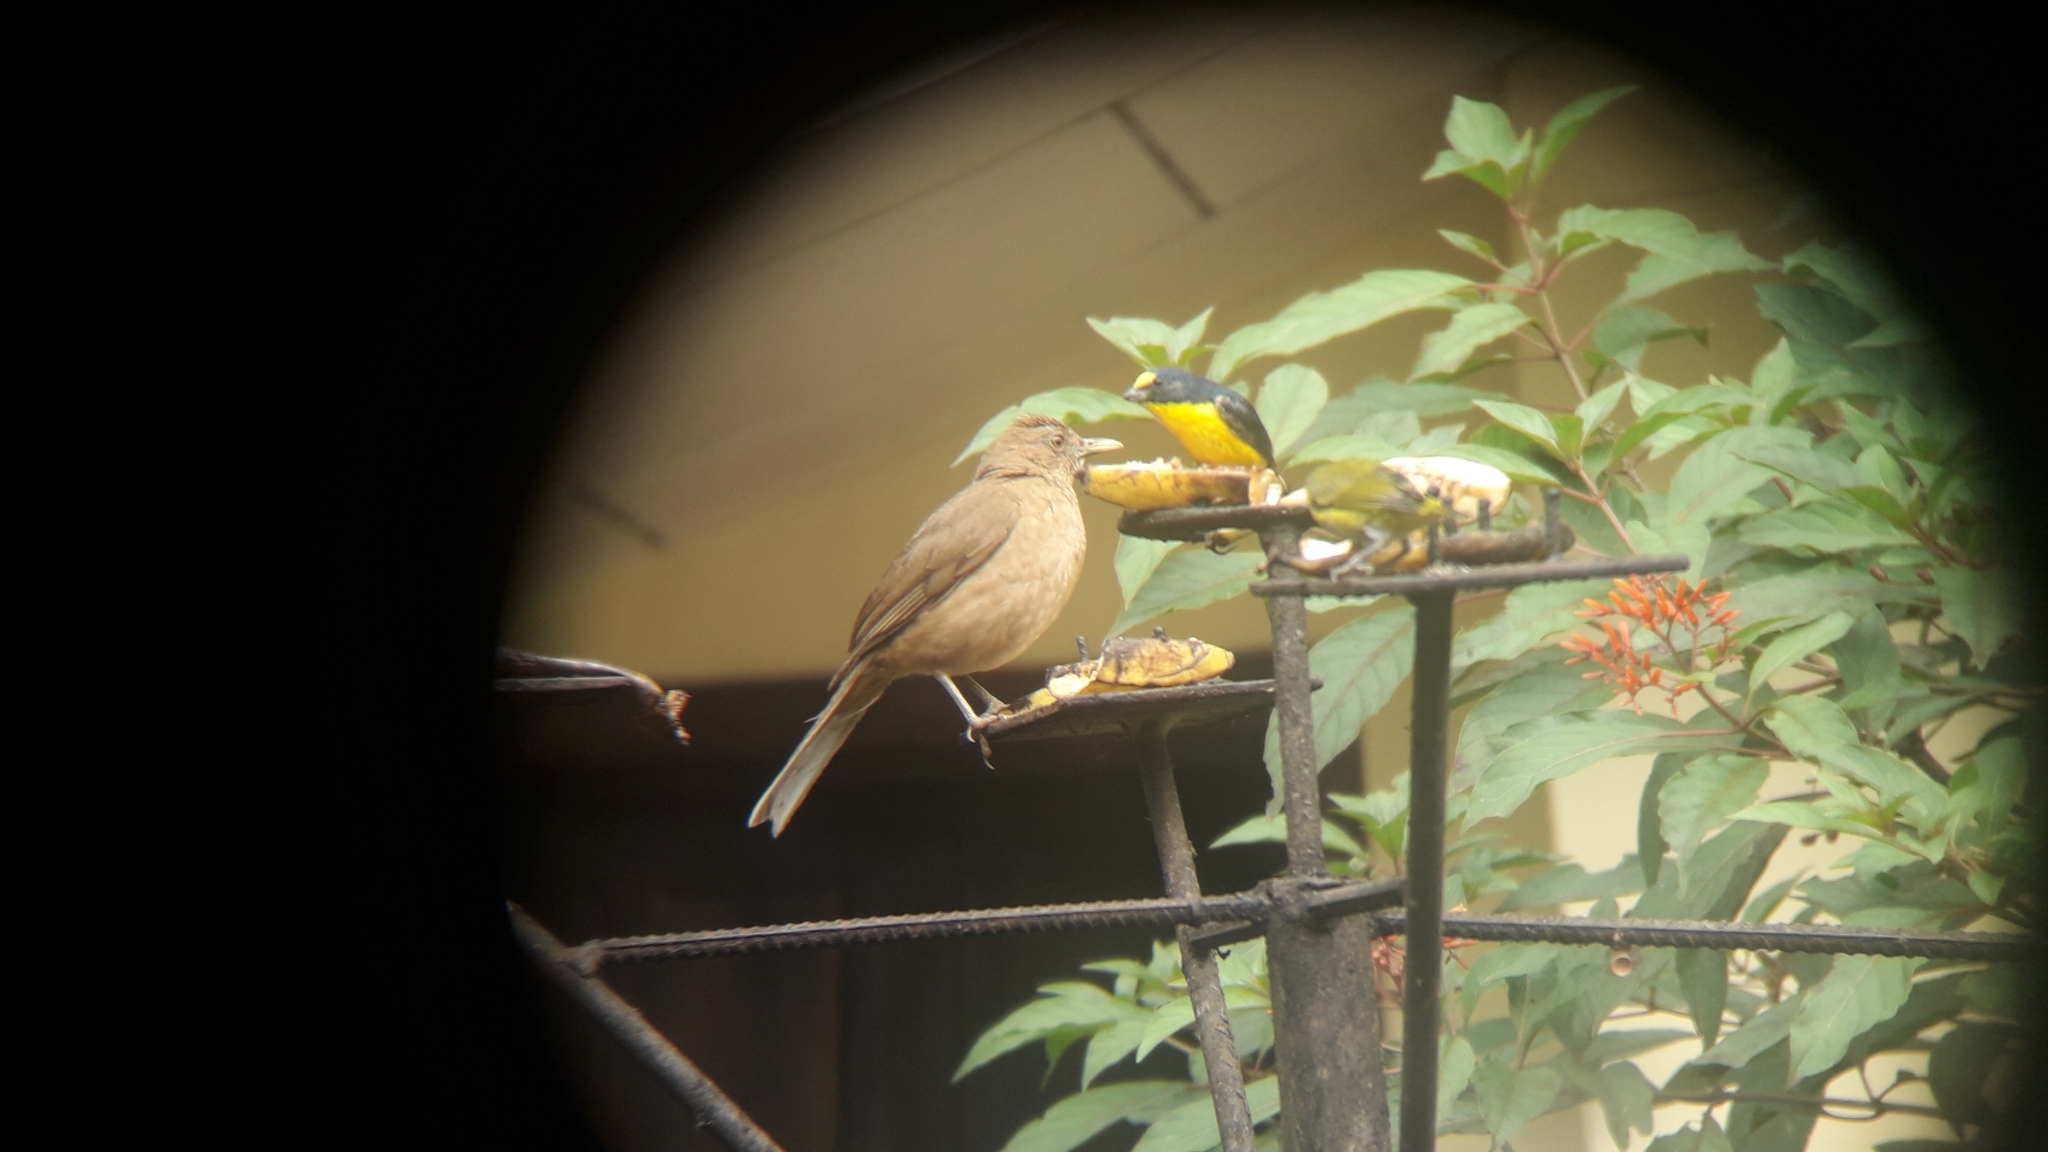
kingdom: Animalia
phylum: Chordata
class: Aves
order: Passeriformes
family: Fringillidae
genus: Euphonia
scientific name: Euphonia hirundinacea
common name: Yellow-throated euphonia
